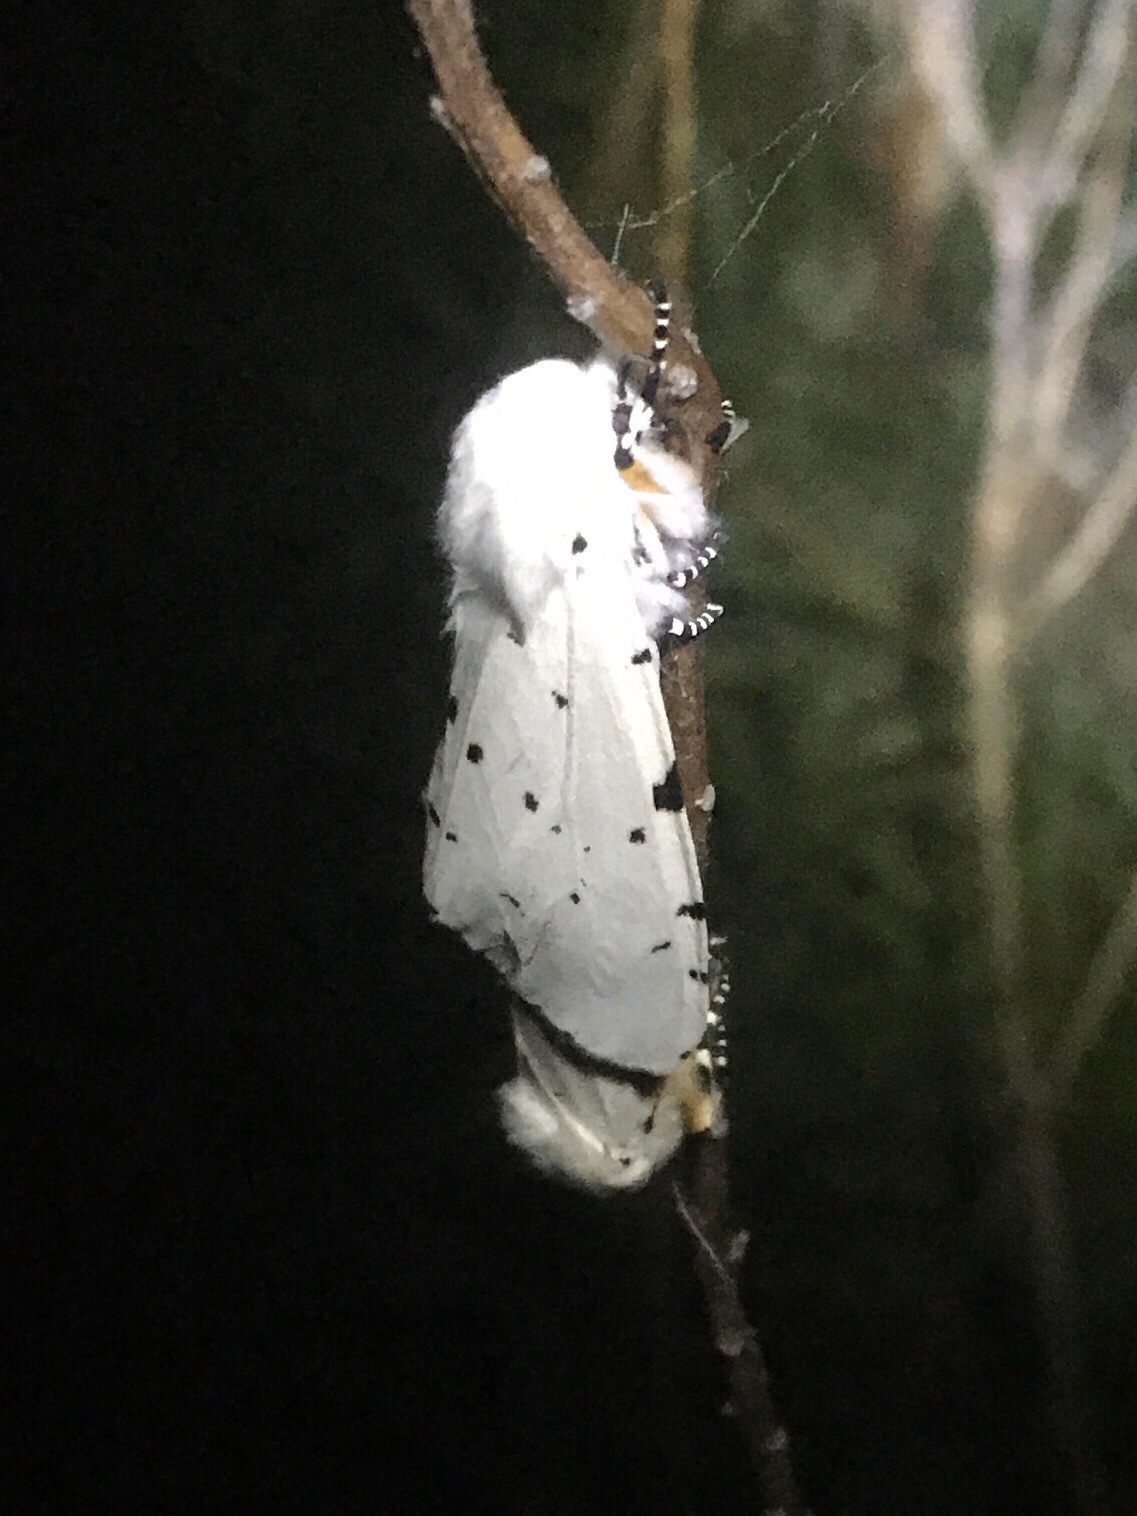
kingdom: Animalia
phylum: Arthropoda
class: Insecta
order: Lepidoptera
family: Erebidae
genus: Estigmene
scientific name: Estigmene acrea
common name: Salt marsh moth
